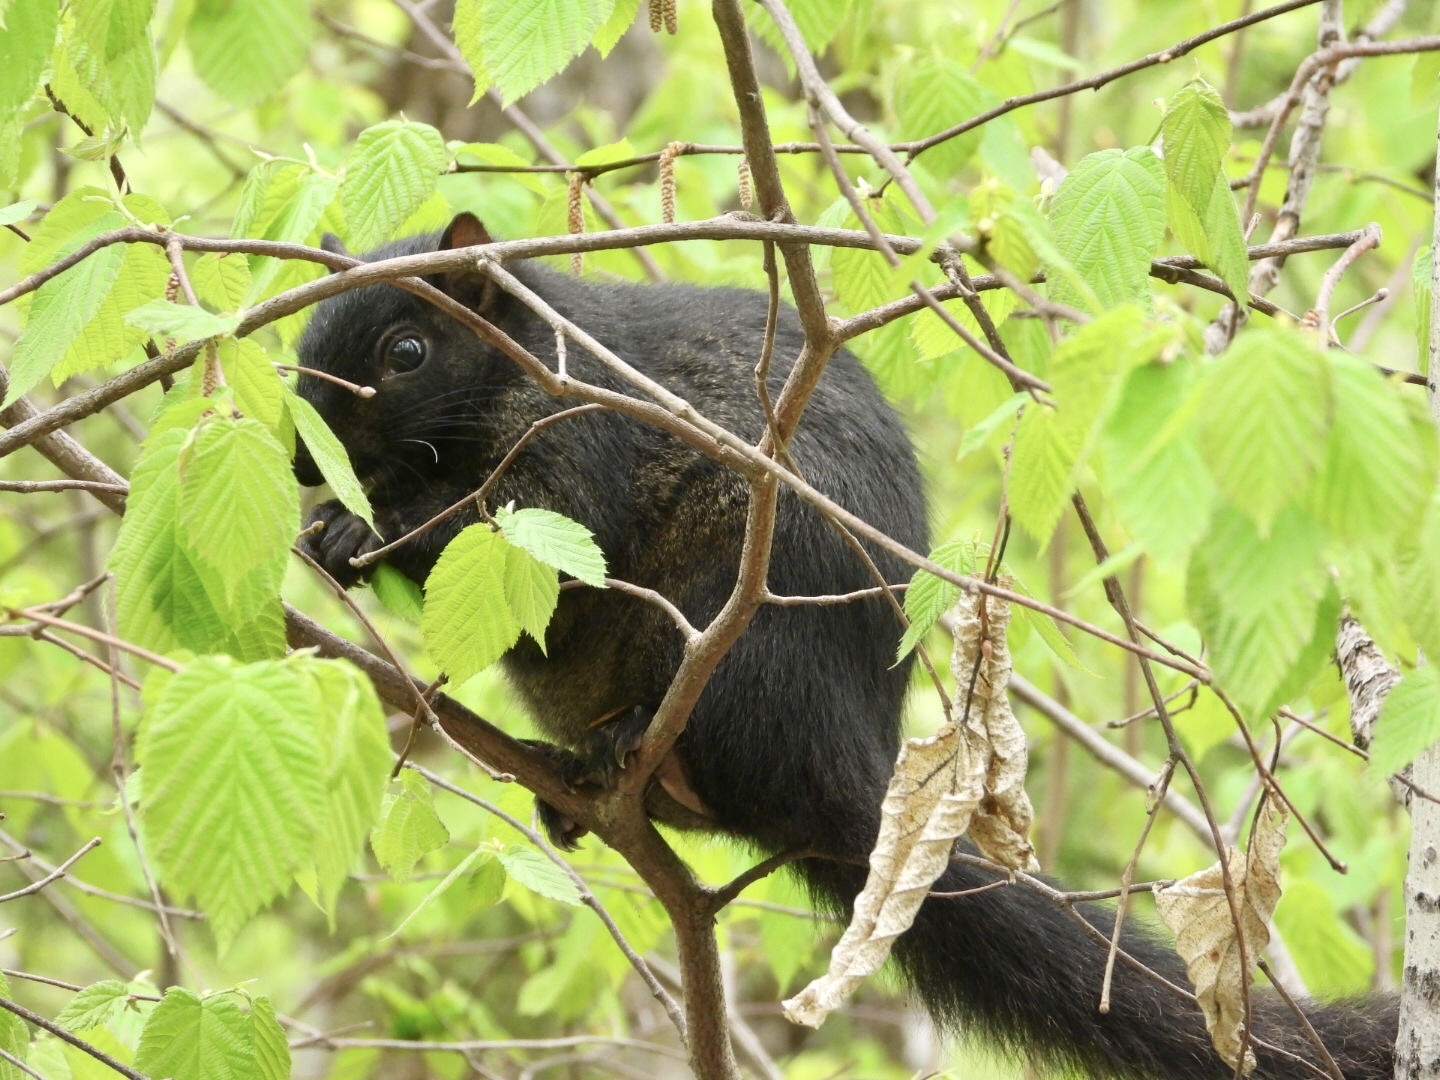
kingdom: Animalia
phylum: Chordata
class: Mammalia
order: Rodentia
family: Sciuridae
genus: Sciurus
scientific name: Sciurus carolinensis
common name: Eastern gray squirrel
